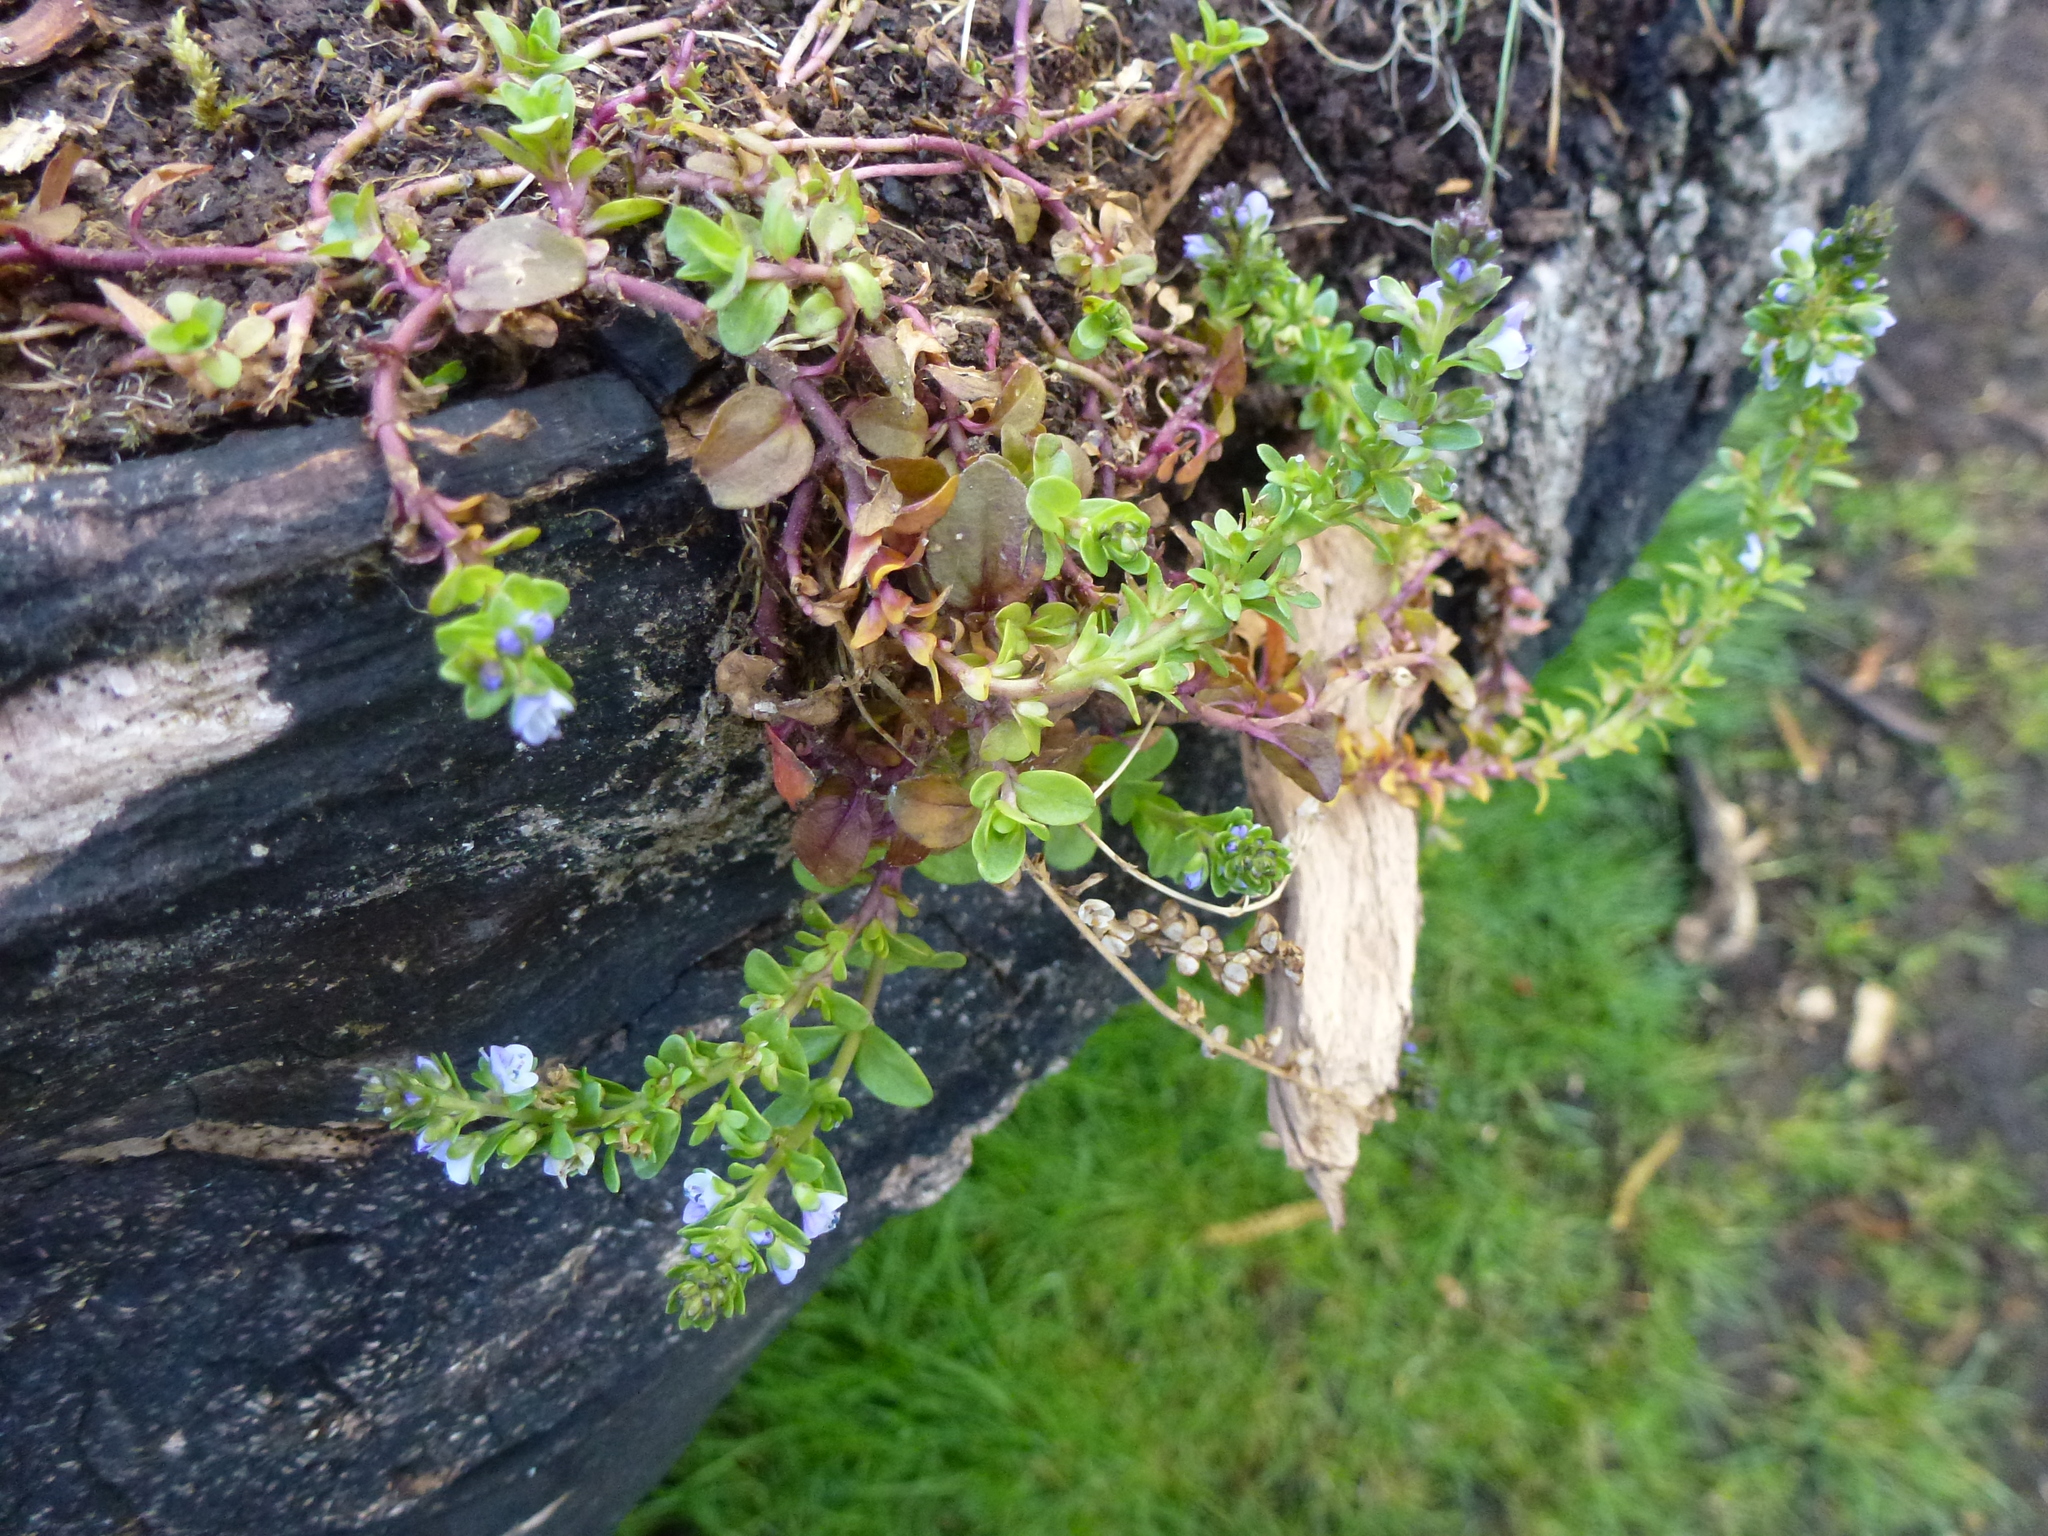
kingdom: Plantae
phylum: Tracheophyta
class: Magnoliopsida
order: Lamiales
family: Plantaginaceae
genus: Veronica
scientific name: Veronica serpyllifolia
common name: Thyme-leaved speedwell
